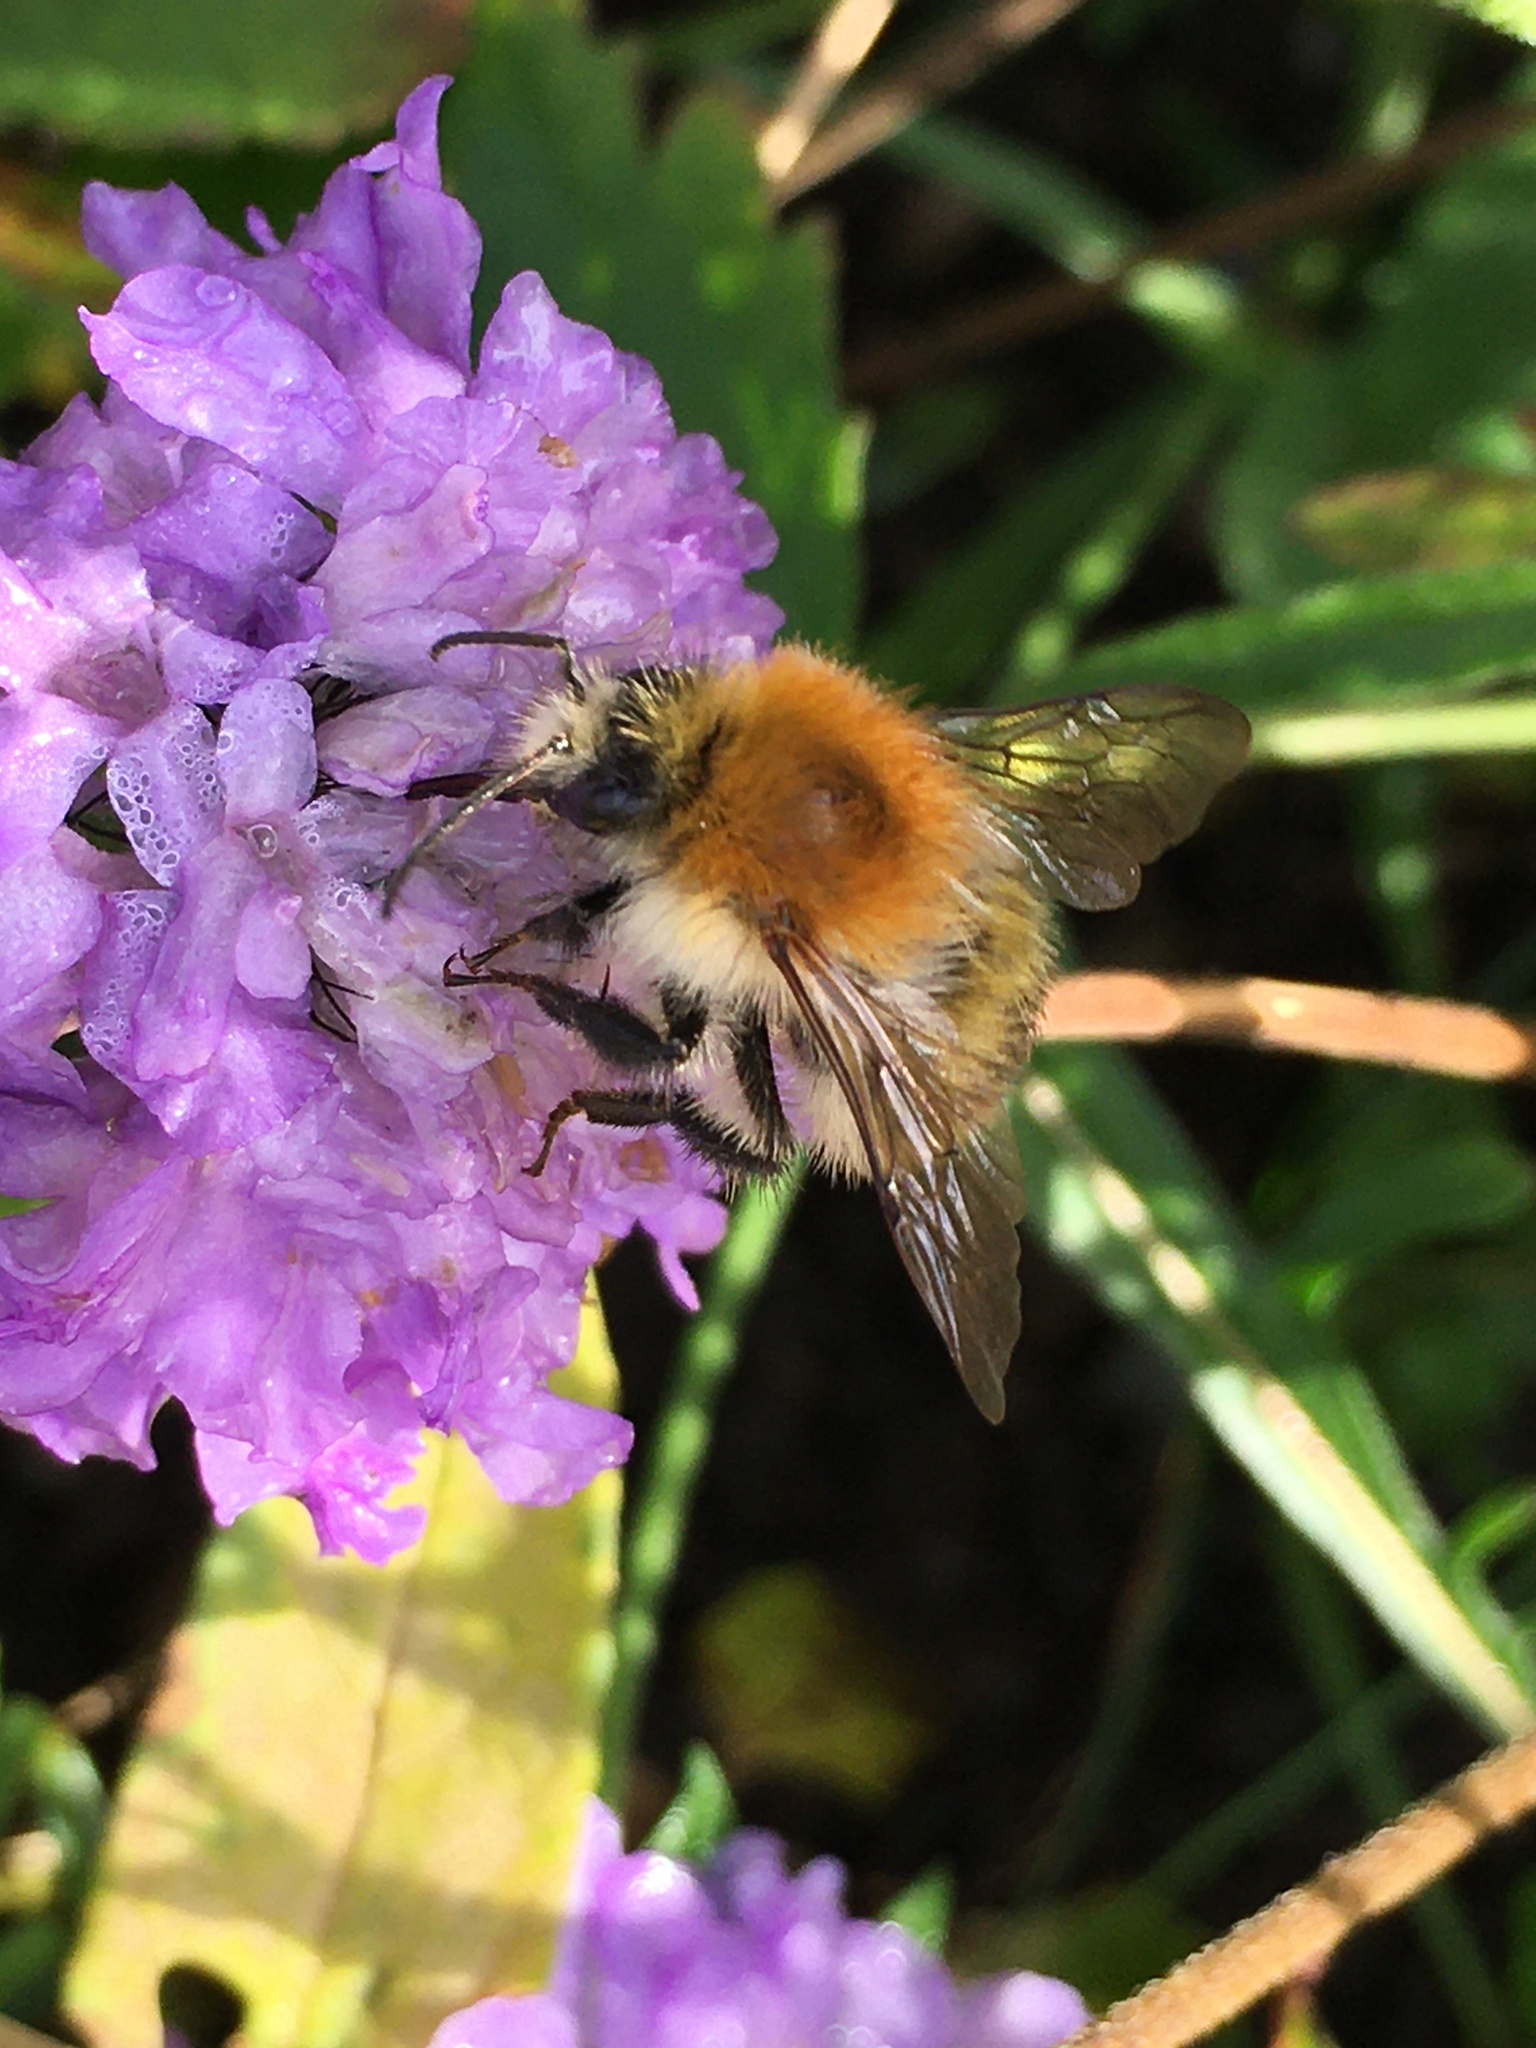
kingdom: Animalia
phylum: Arthropoda
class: Insecta
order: Hymenoptera
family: Apidae
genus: Bombus
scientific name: Bombus pascuorum
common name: Common carder bee
